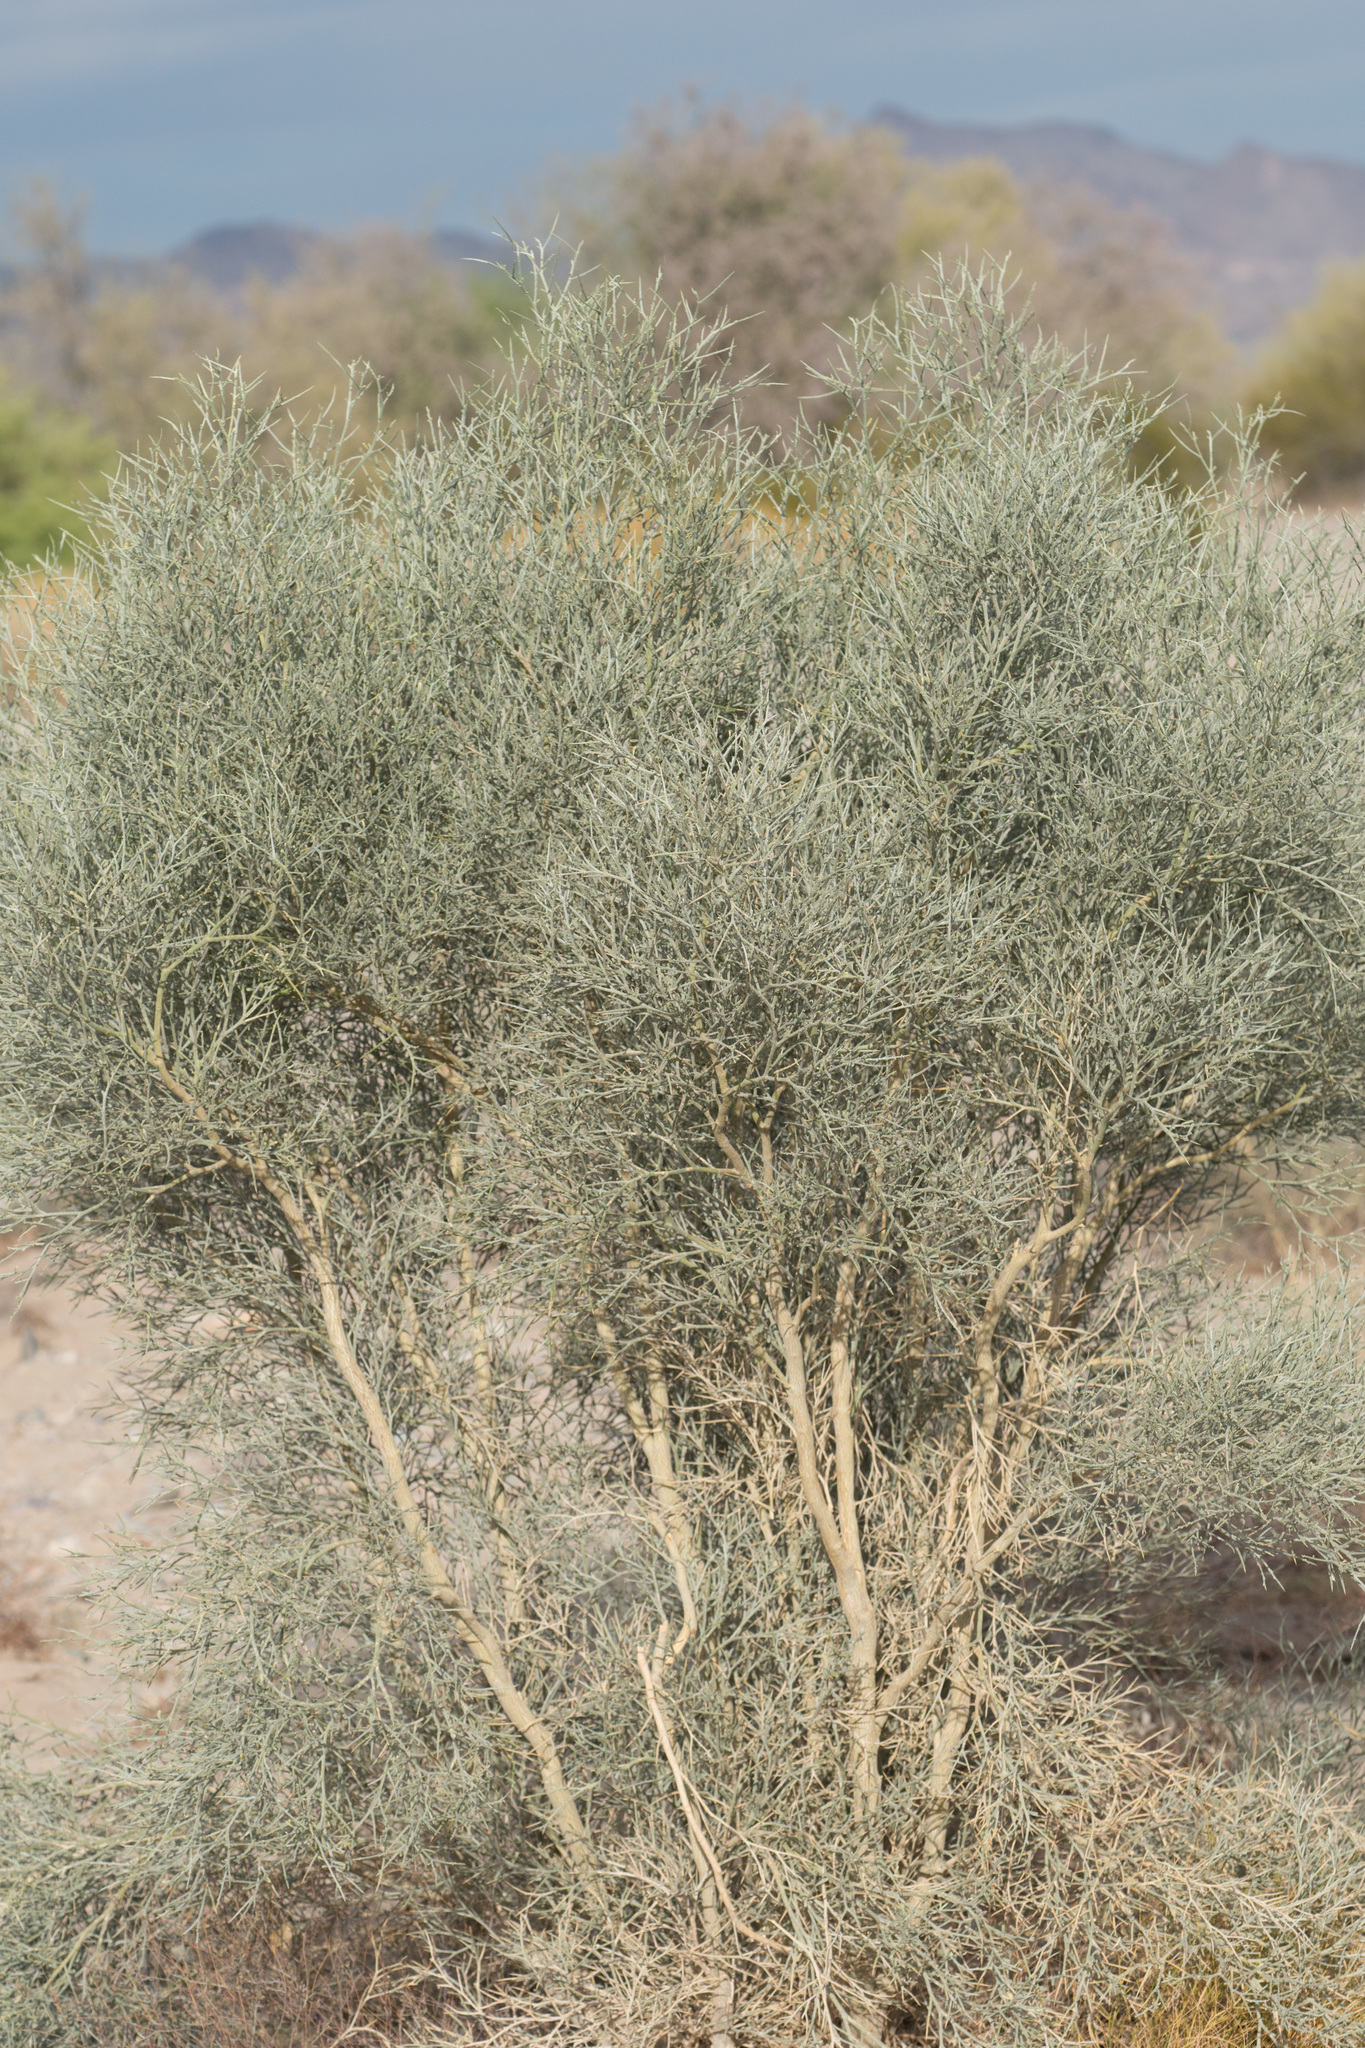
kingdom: Plantae
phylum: Tracheophyta
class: Magnoliopsida
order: Fabales
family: Fabaceae
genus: Psorothamnus
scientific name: Psorothamnus spinosus
